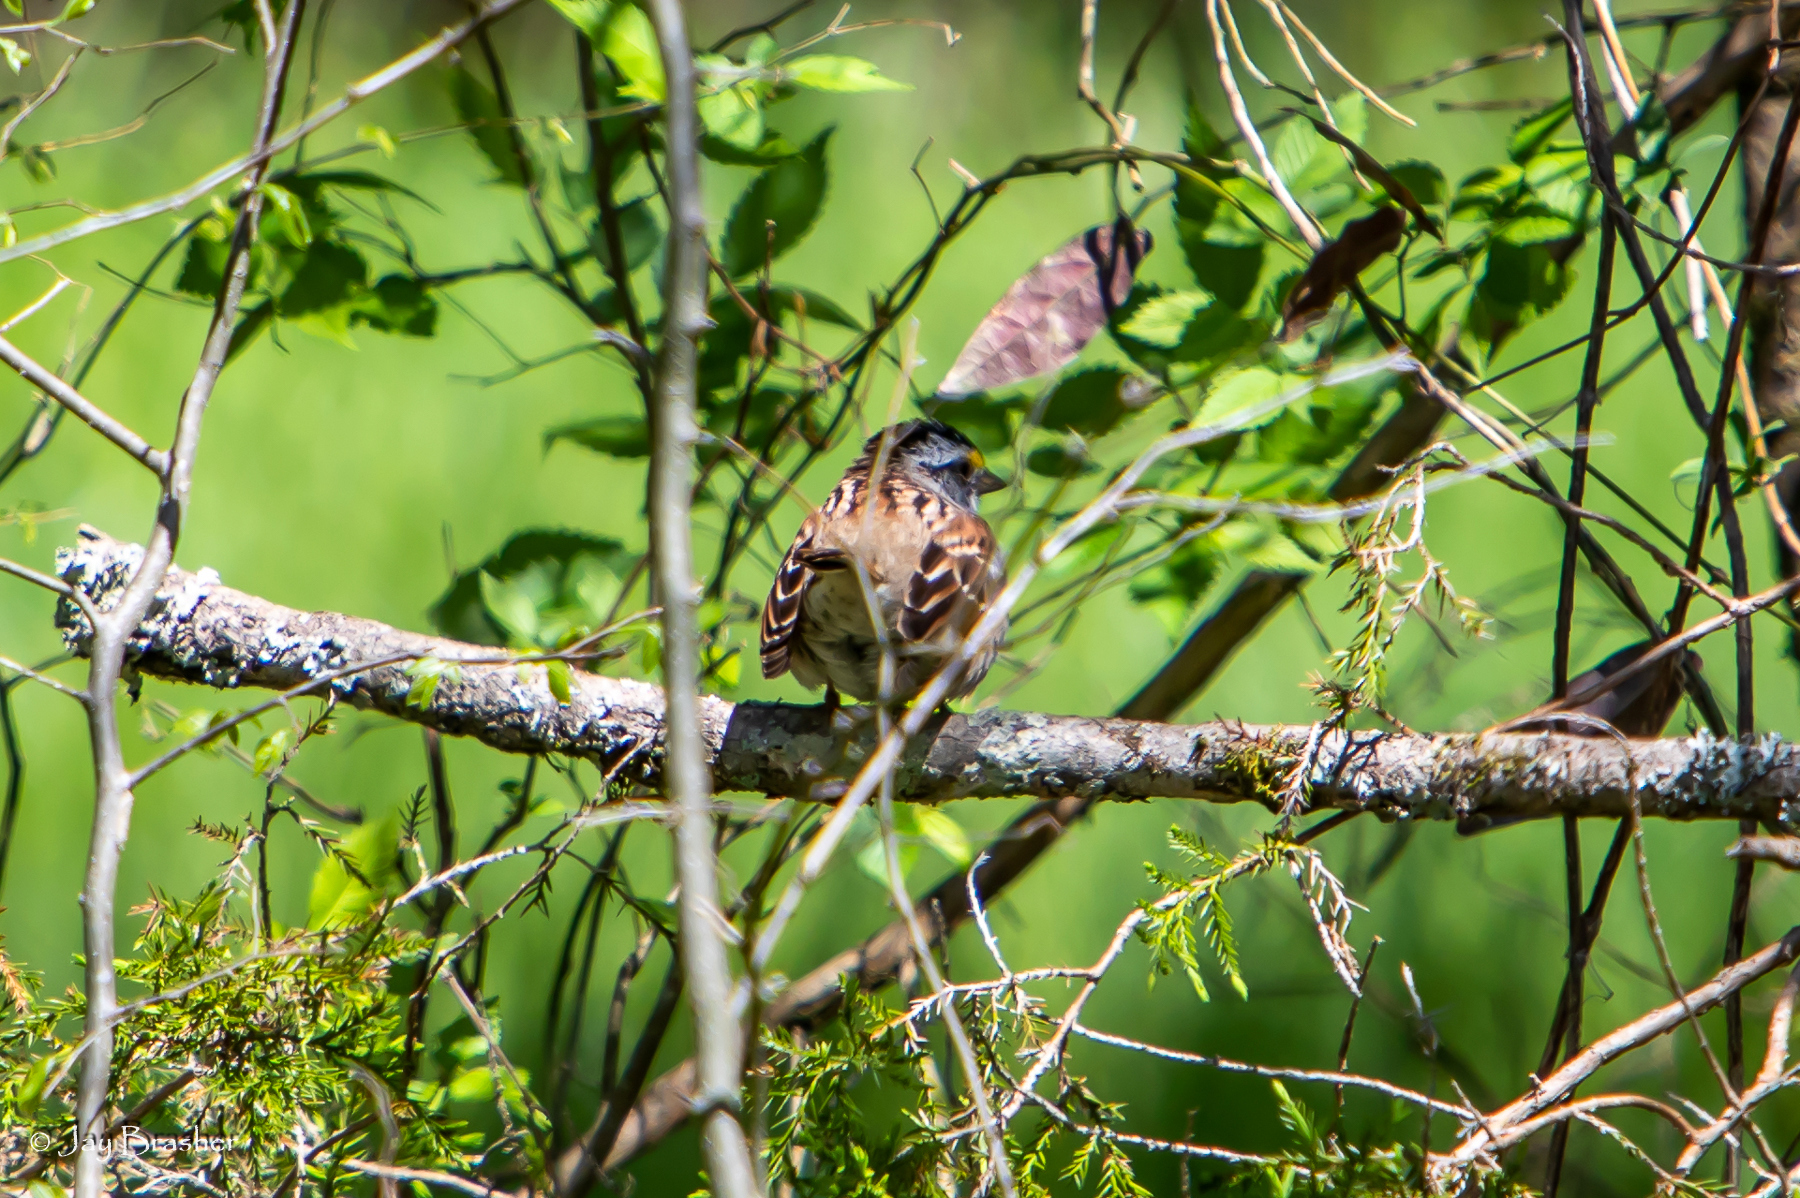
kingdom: Animalia
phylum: Chordata
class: Aves
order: Passeriformes
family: Passerellidae
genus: Zonotrichia
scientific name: Zonotrichia albicollis
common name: White-throated sparrow
